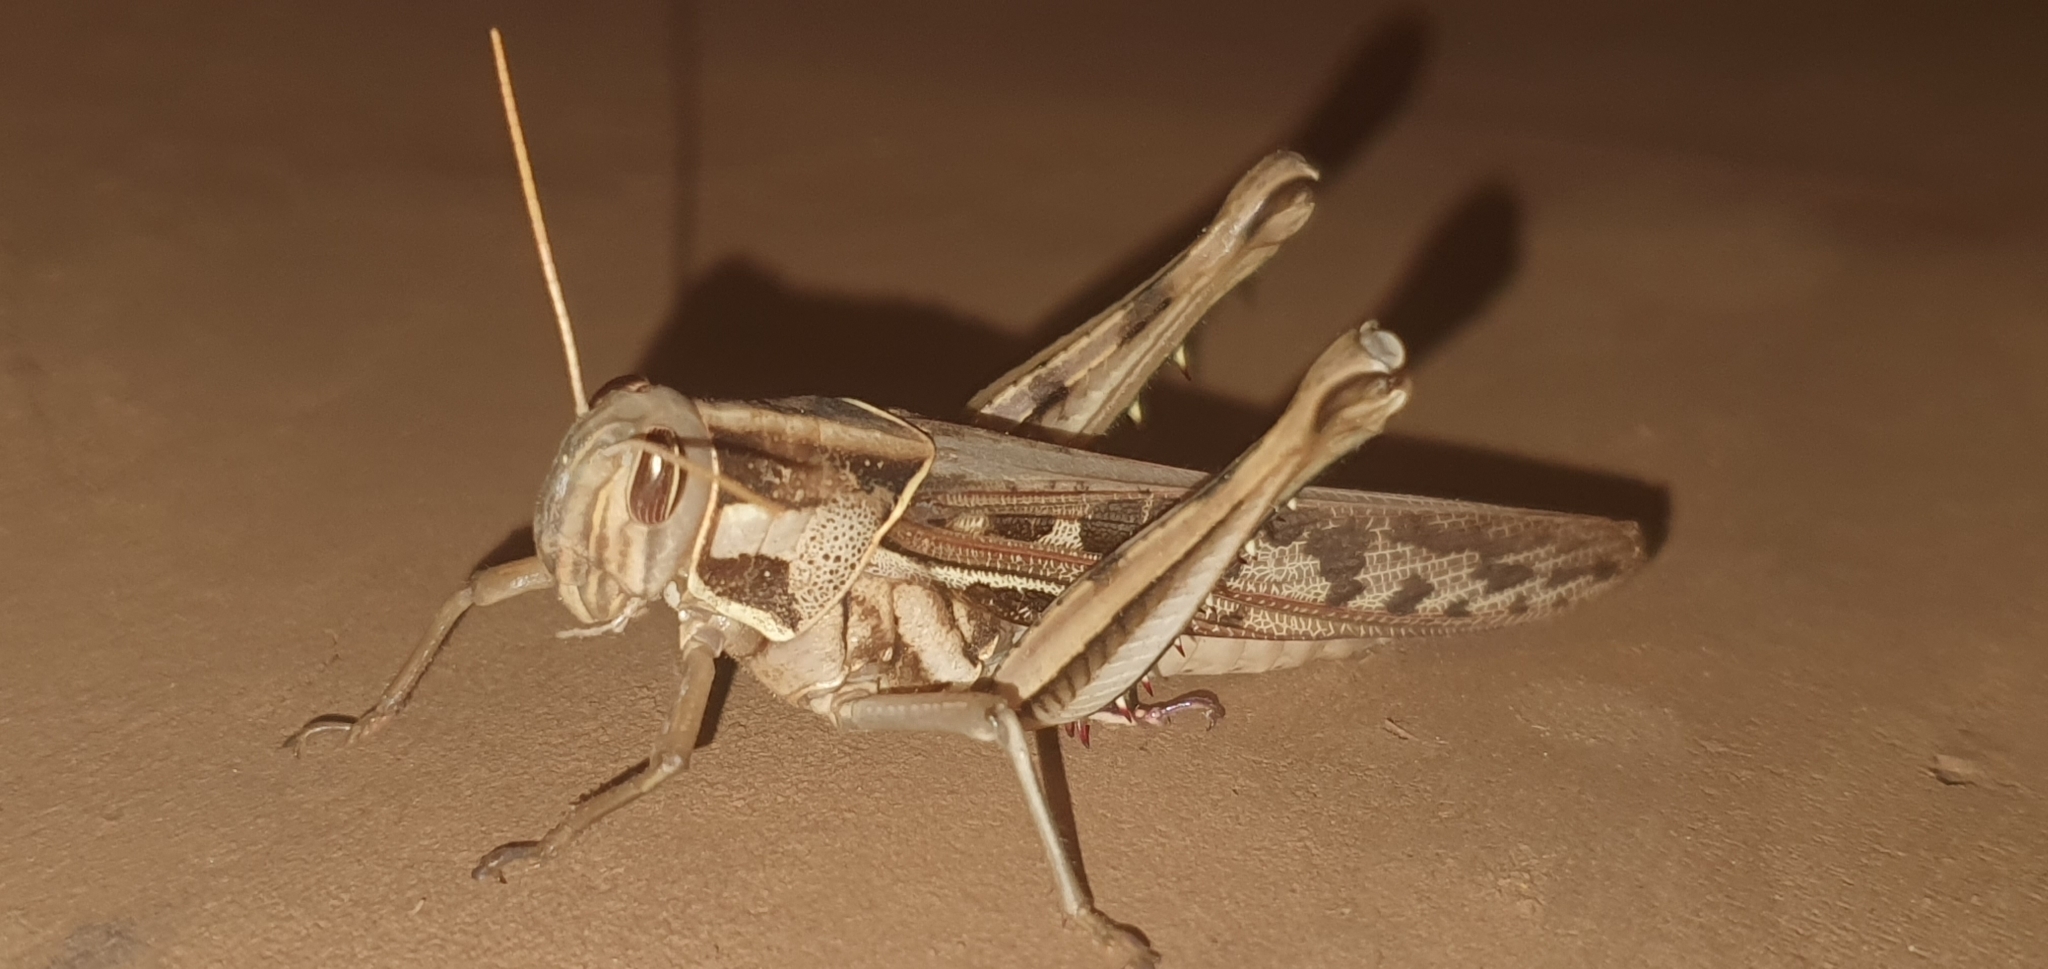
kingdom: Animalia
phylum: Arthropoda
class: Insecta
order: Orthoptera
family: Acrididae
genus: Cyrtacanthacris
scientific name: Cyrtacanthacris tatarica
